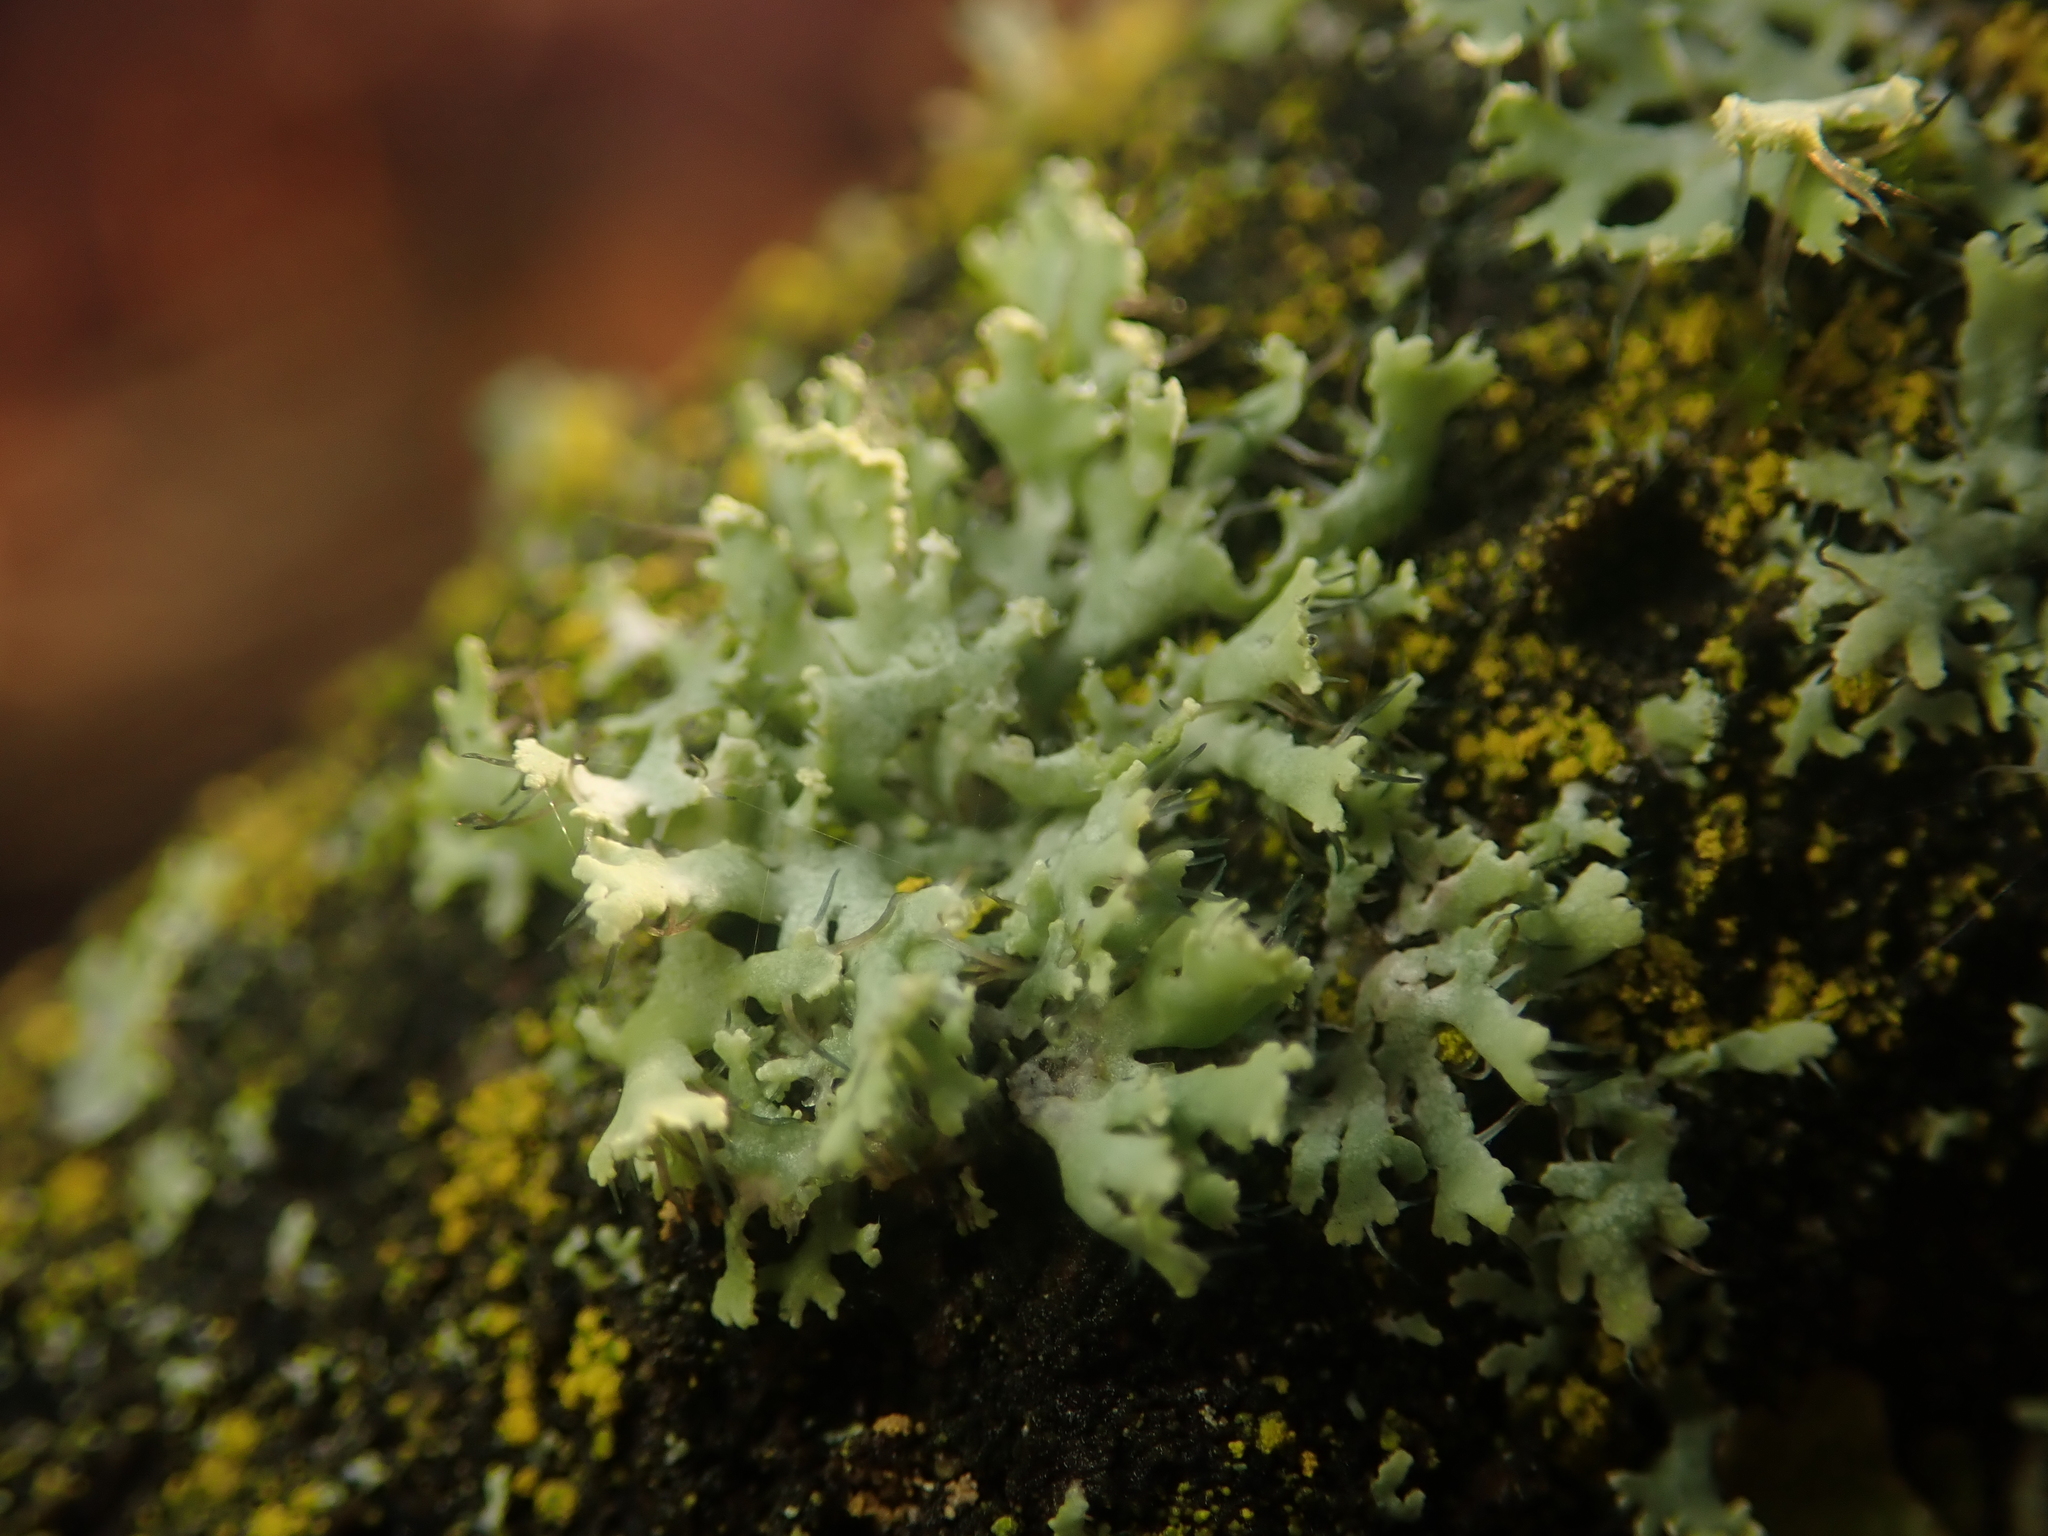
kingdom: Fungi
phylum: Ascomycota
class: Lecanoromycetes
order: Caliciales
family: Physciaceae
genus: Physcia
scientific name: Physcia tenella
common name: Fringed rosette lichen
